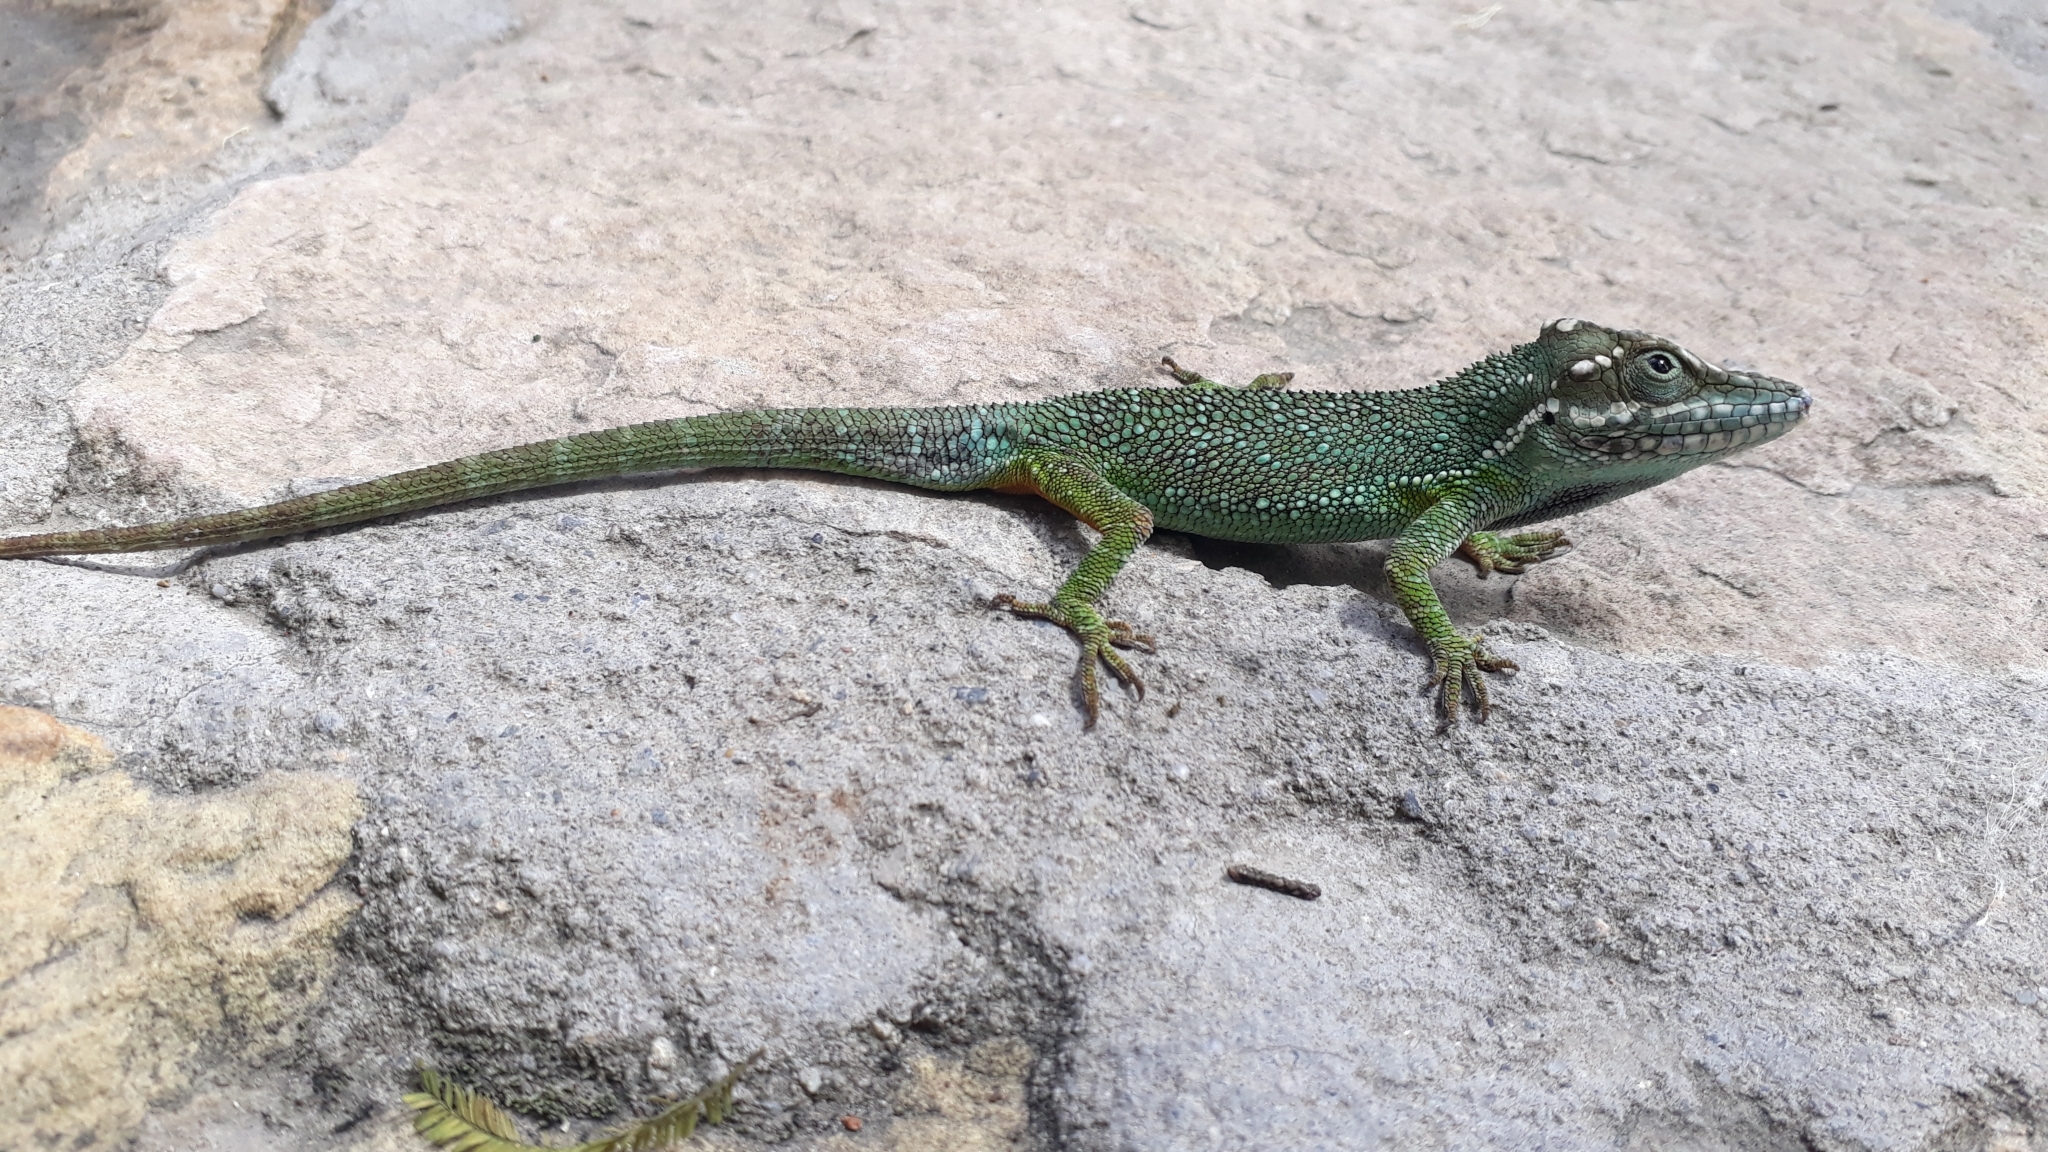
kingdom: Animalia
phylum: Chordata
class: Squamata
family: Dactyloidae
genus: Anolis
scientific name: Anolis heterodermus
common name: Flat andes anole
